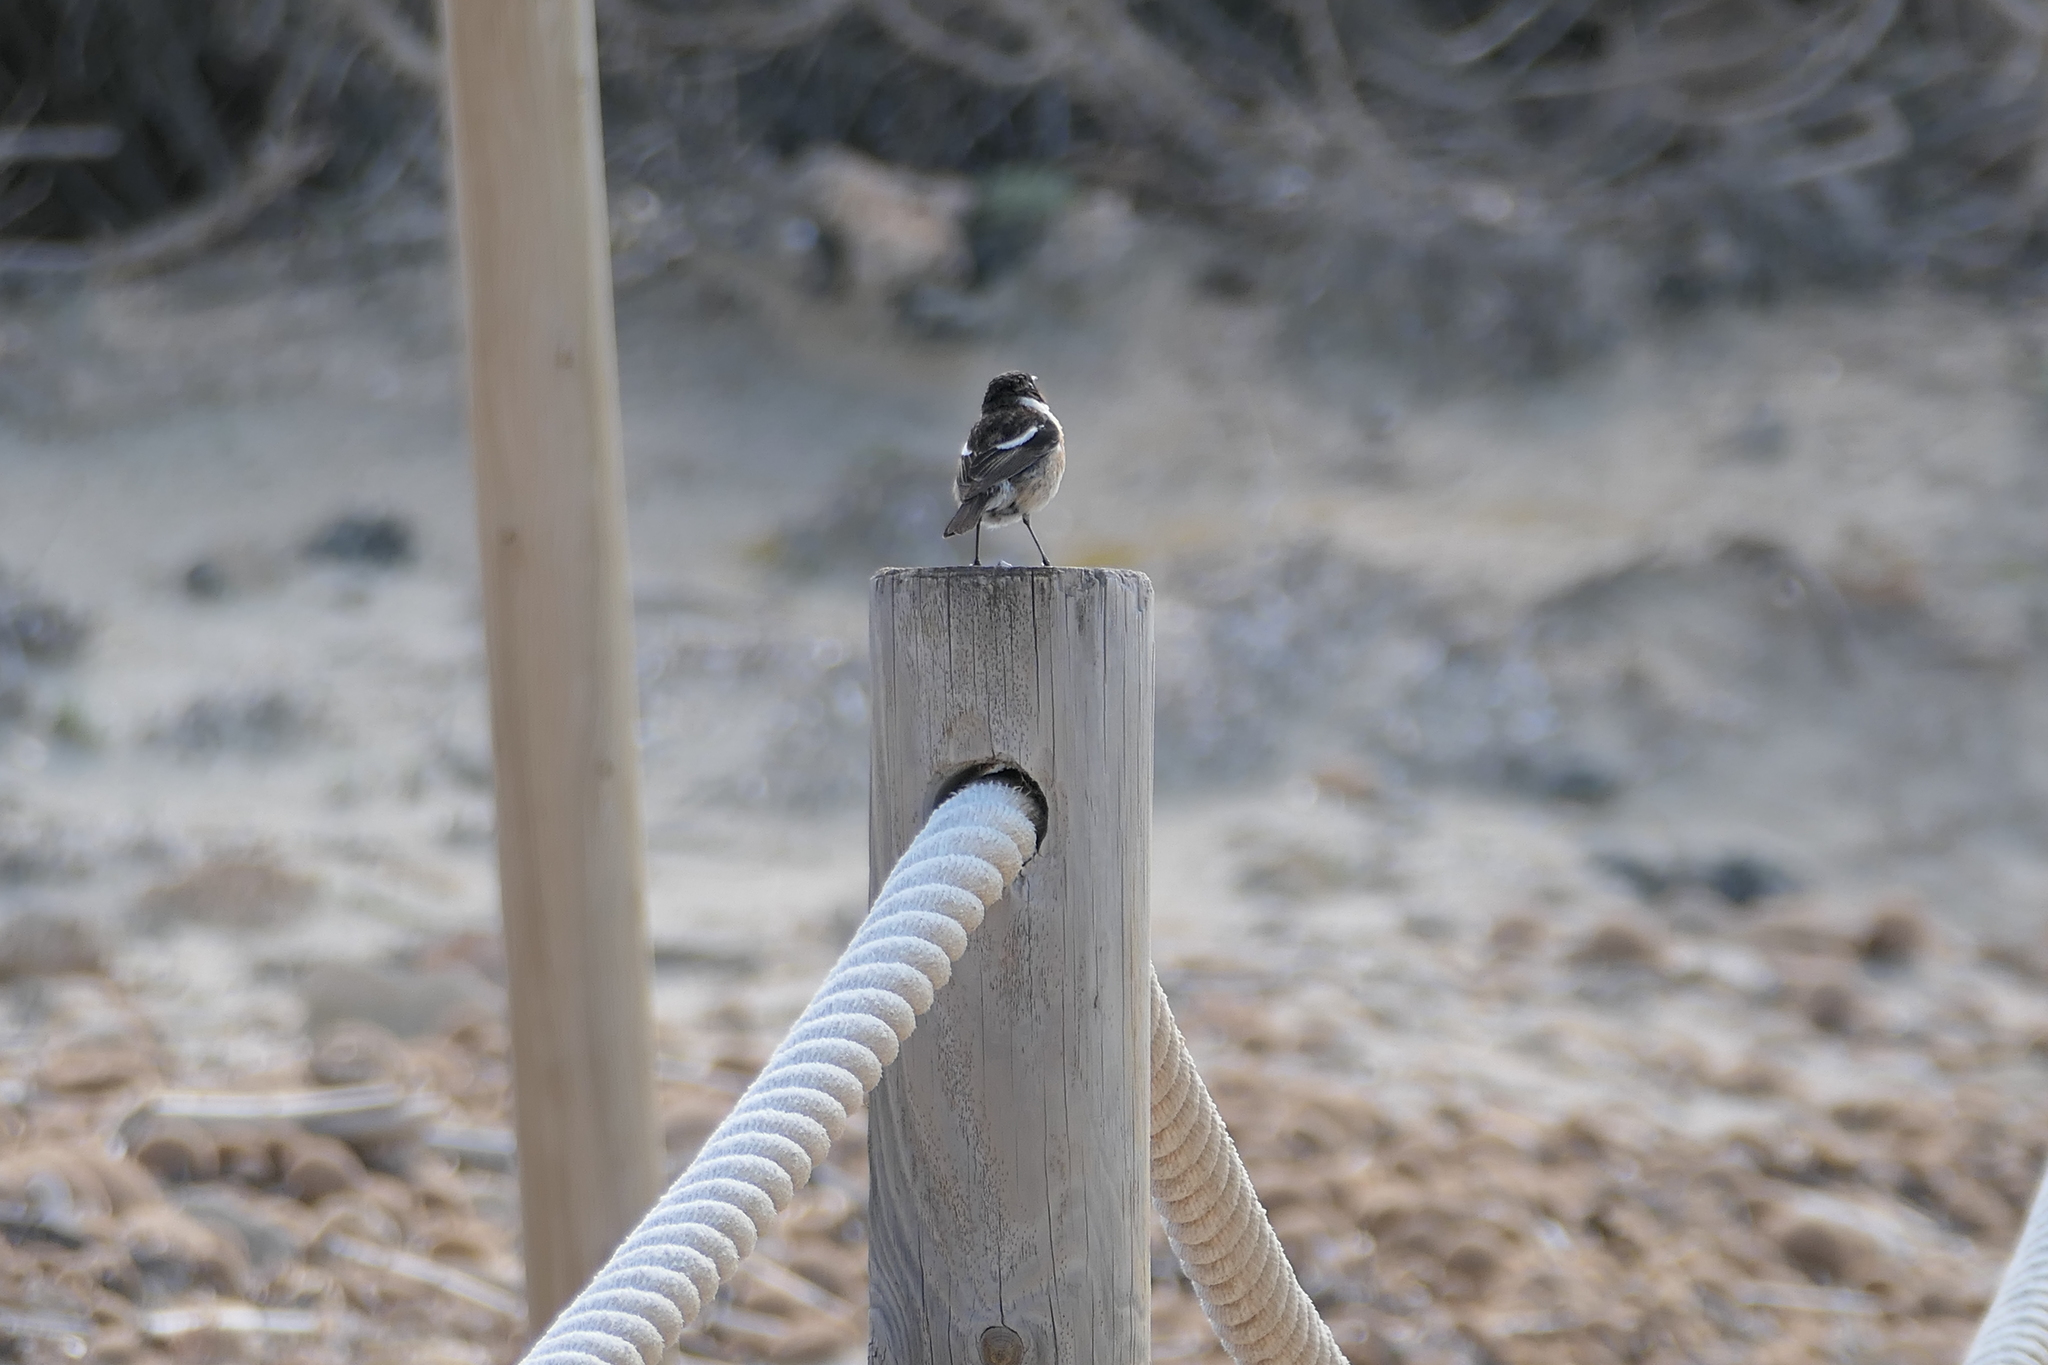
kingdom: Animalia
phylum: Chordata
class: Aves
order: Passeriformes
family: Muscicapidae
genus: Saxicola
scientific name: Saxicola rubicola
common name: European stonechat
